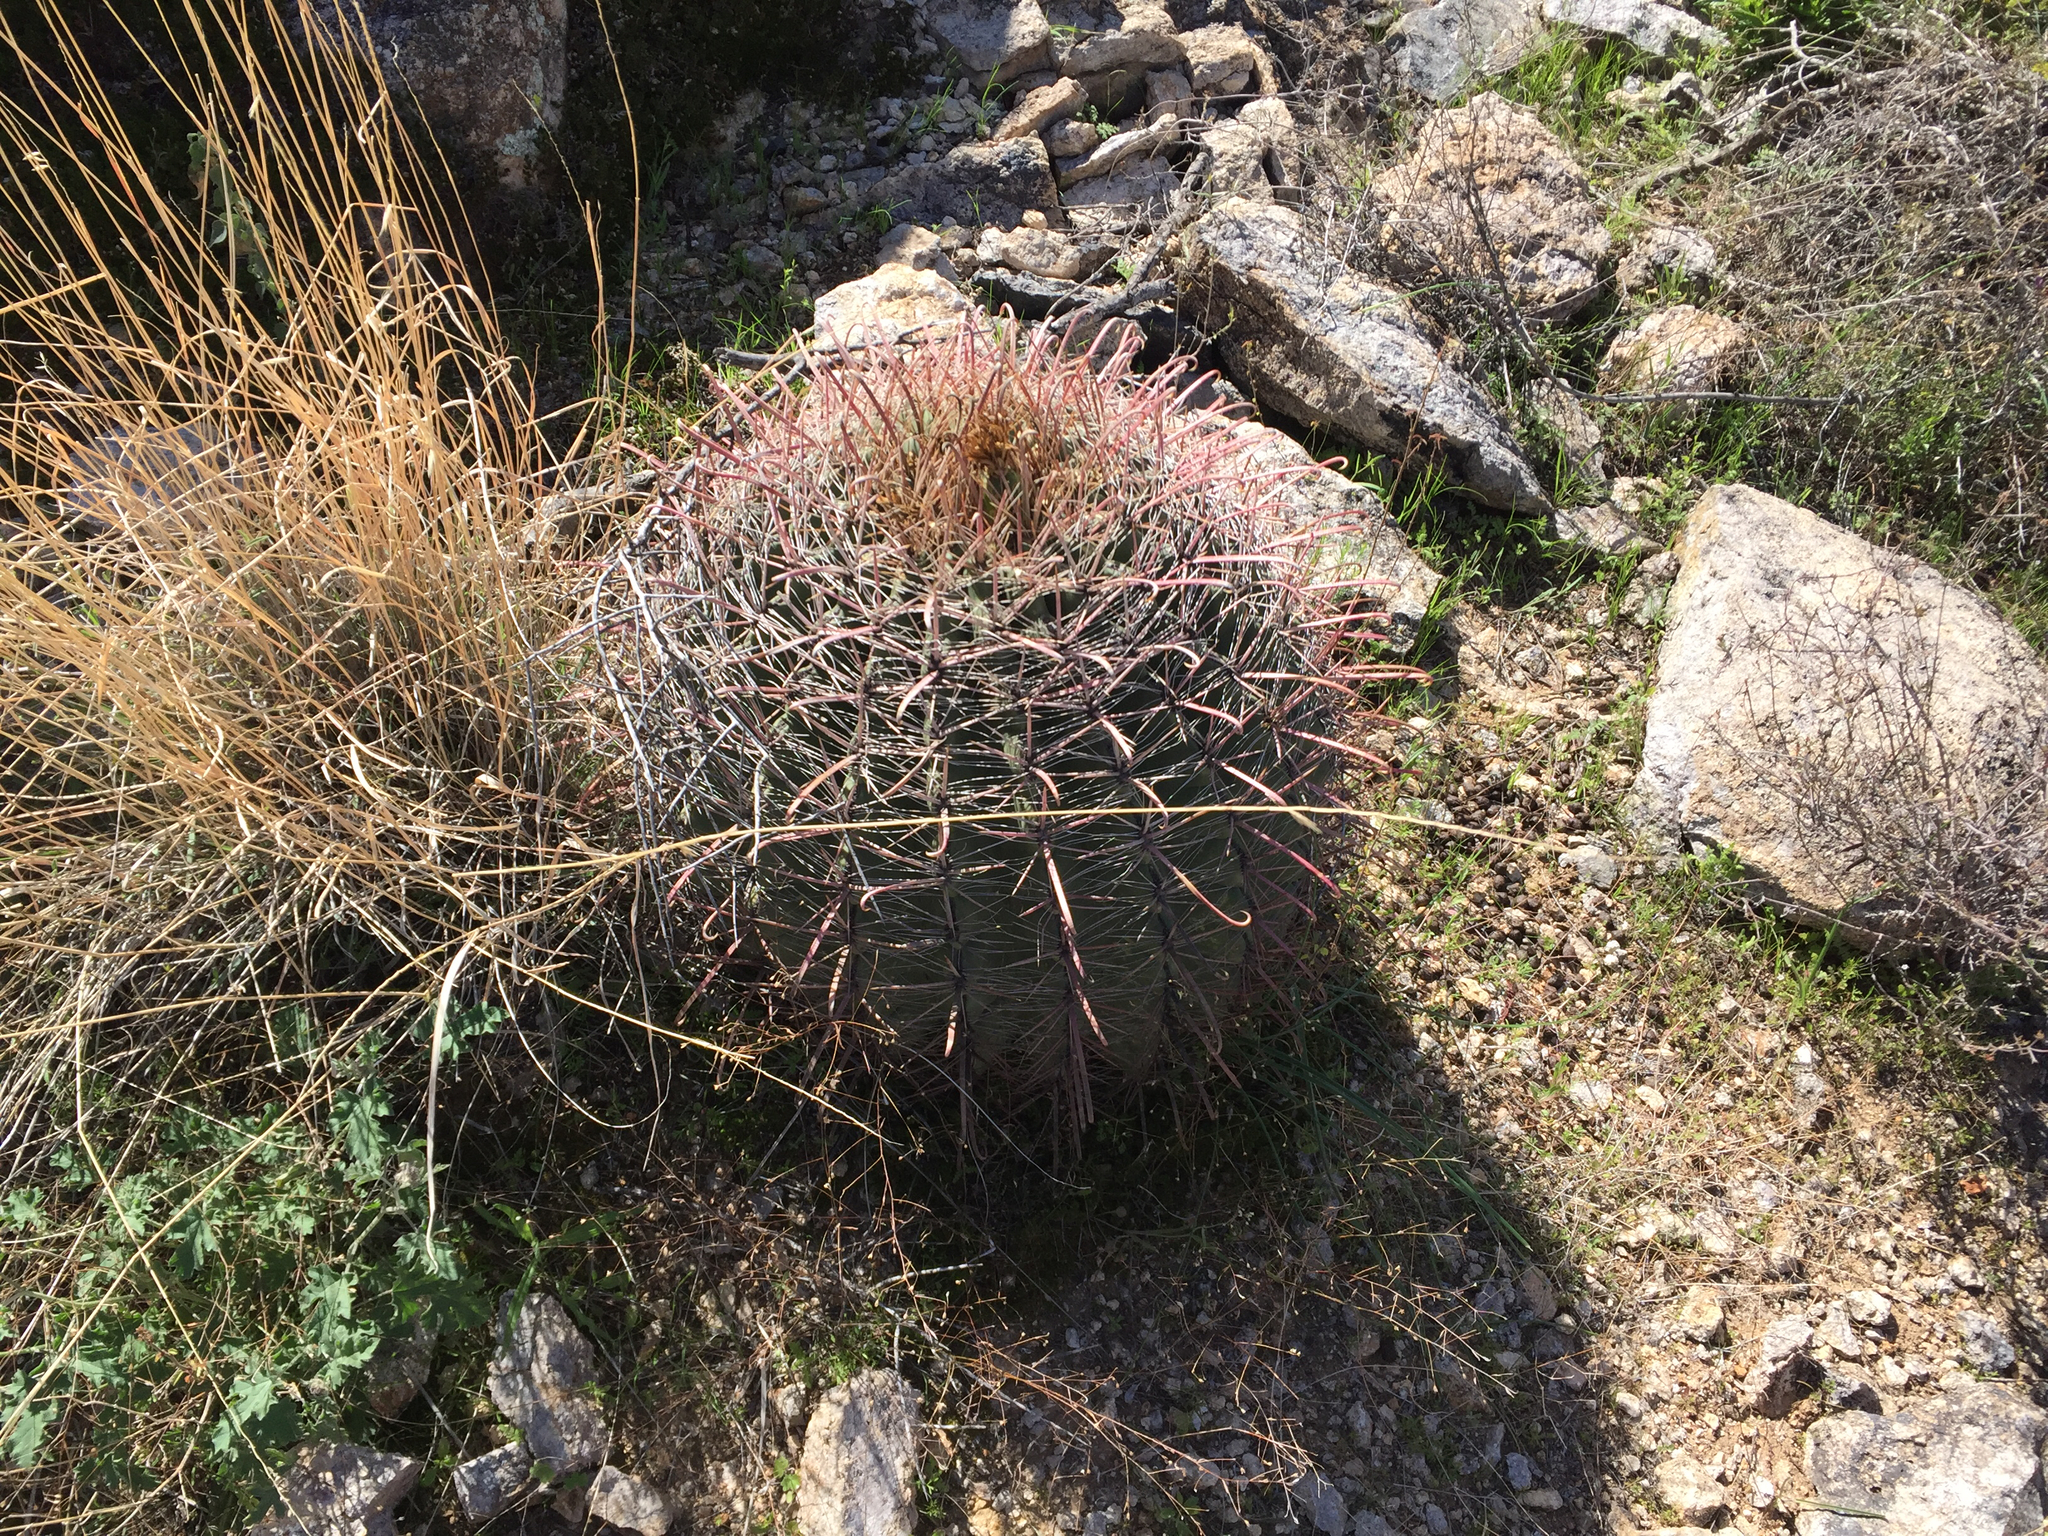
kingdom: Plantae
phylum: Tracheophyta
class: Magnoliopsida
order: Caryophyllales
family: Cactaceae
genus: Ferocactus
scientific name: Ferocactus wislizeni
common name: Candy barrel cactus
